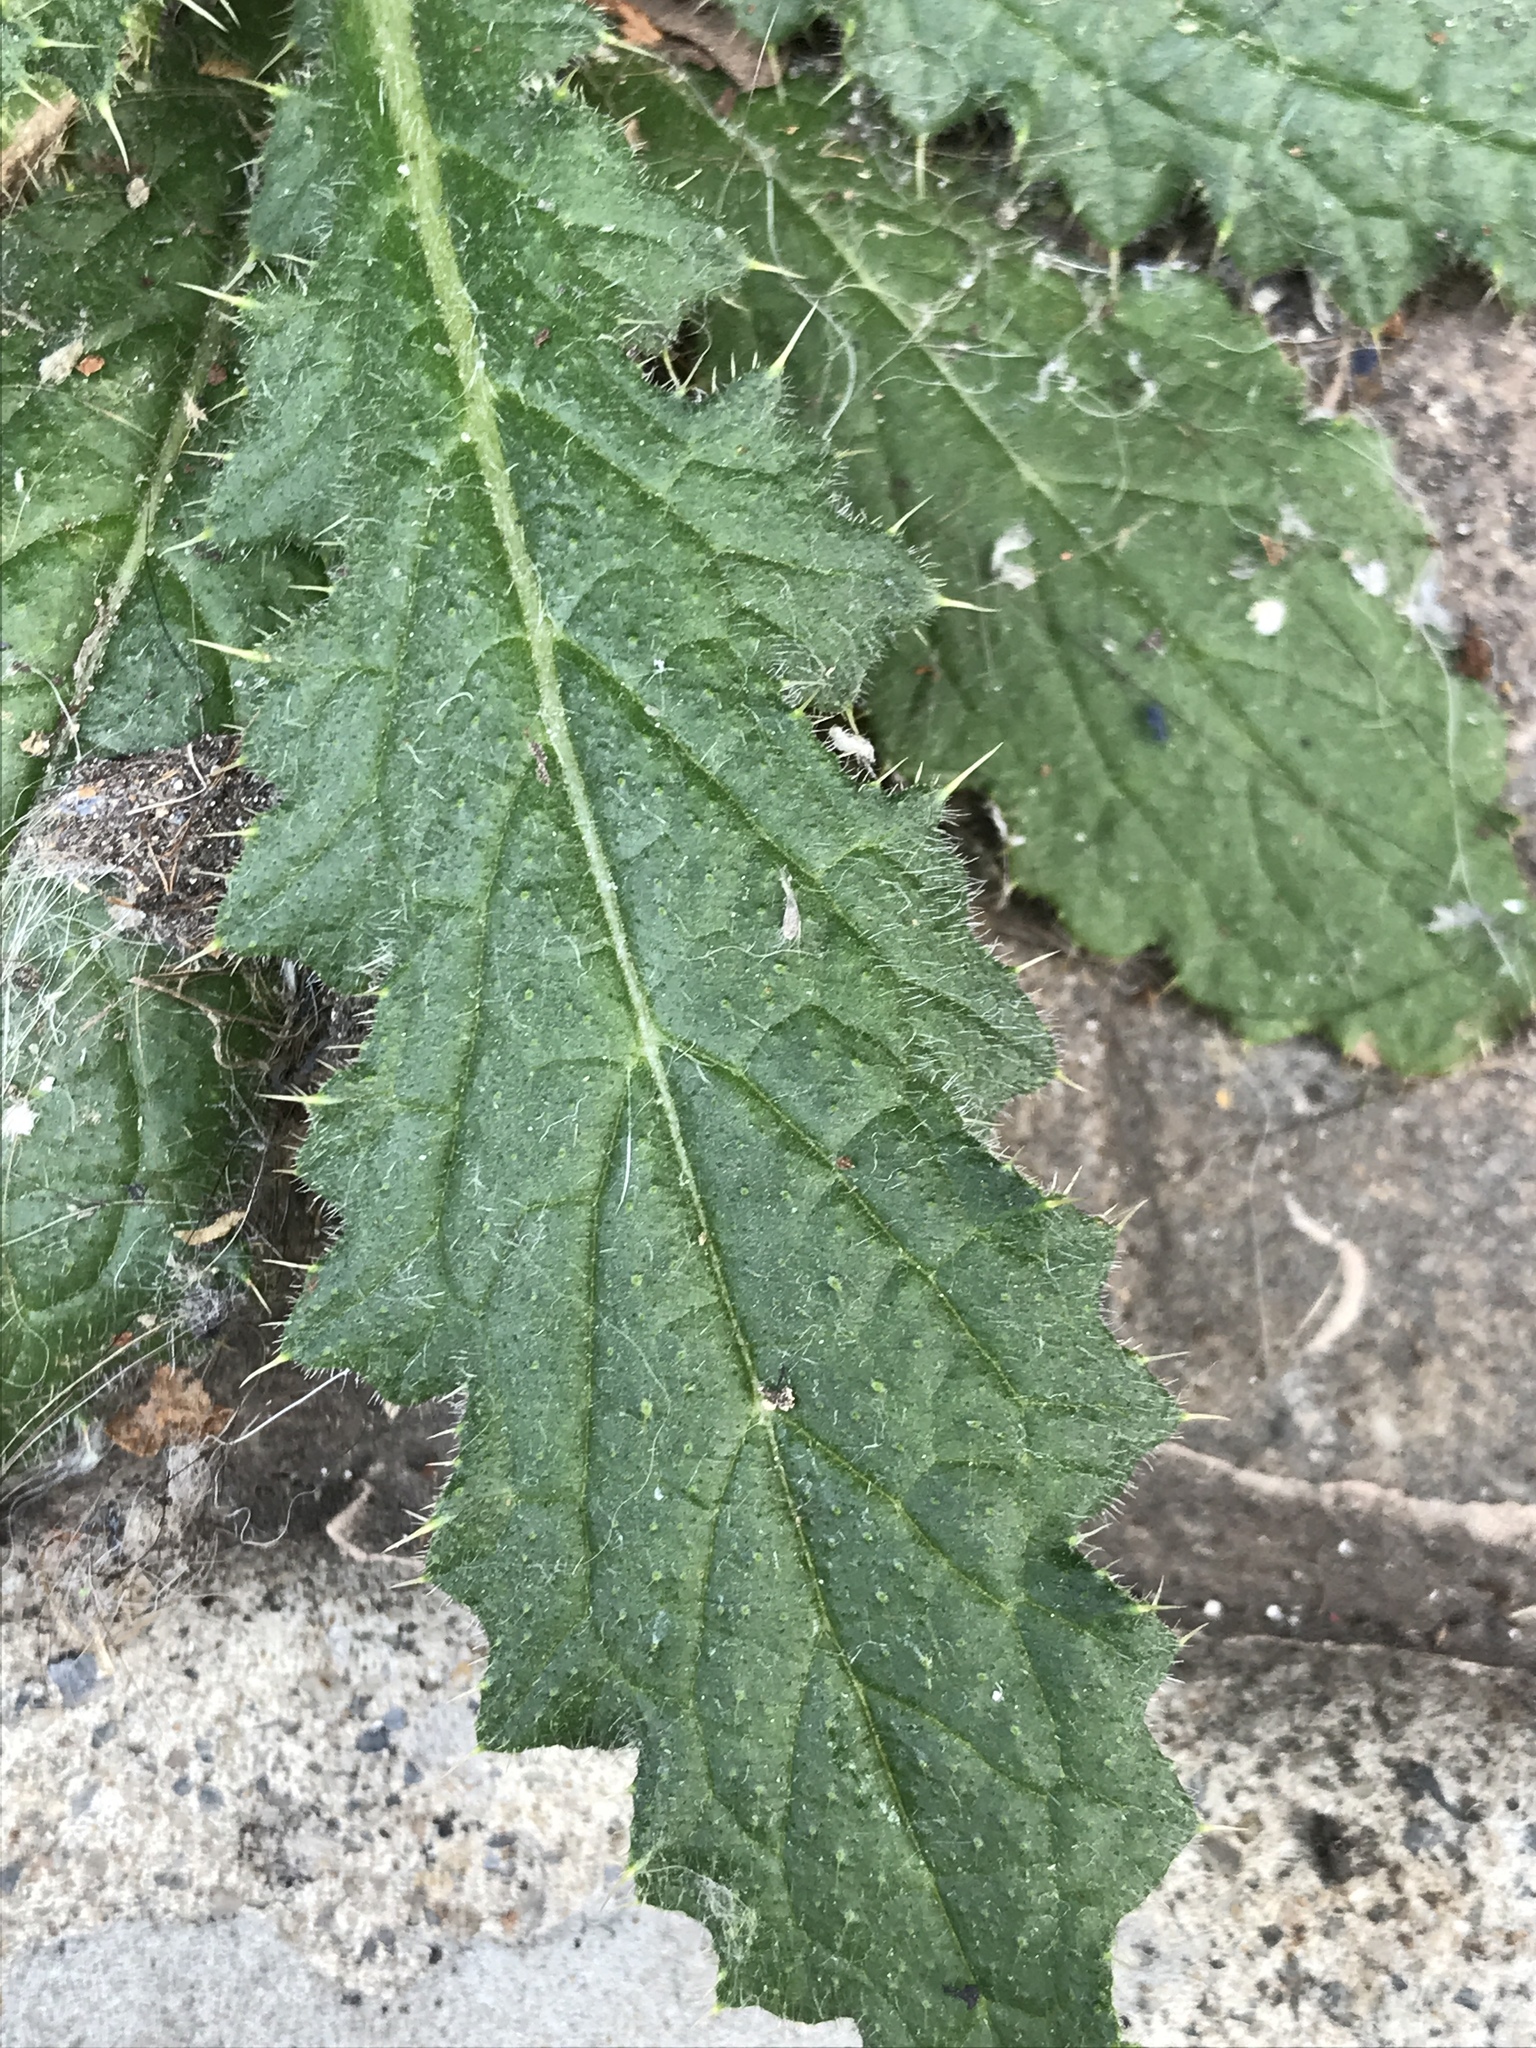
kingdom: Plantae
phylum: Tracheophyta
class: Magnoliopsida
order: Asterales
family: Asteraceae
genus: Cirsium
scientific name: Cirsium vulgare
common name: Bull thistle
